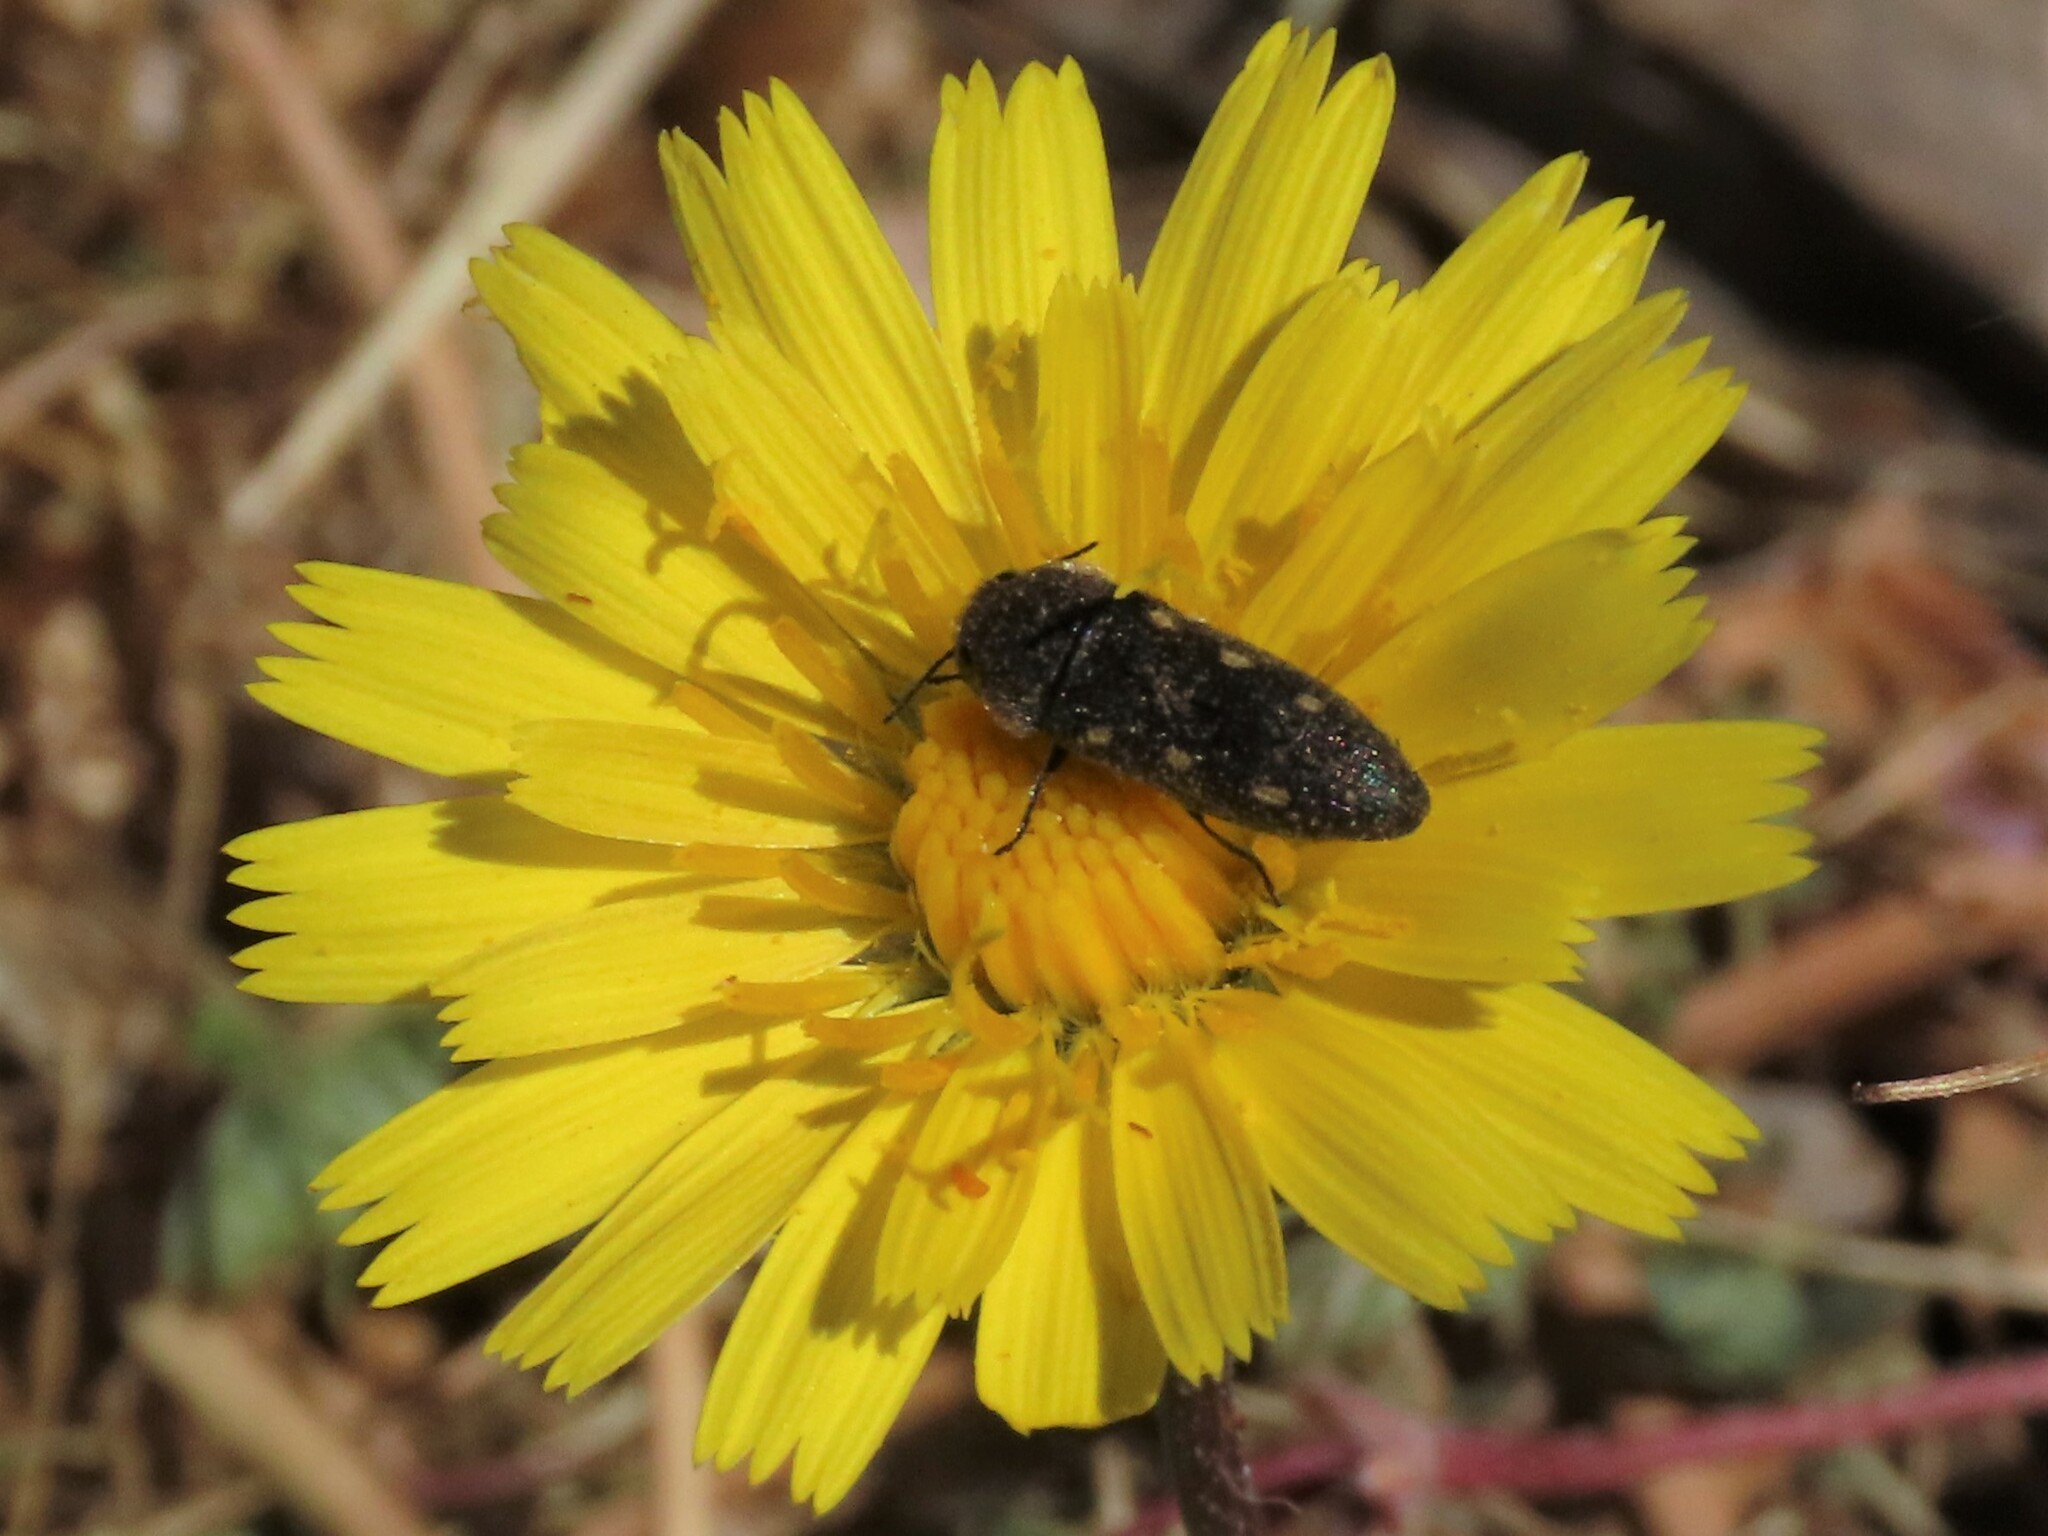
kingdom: Animalia
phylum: Arthropoda
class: Insecta
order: Coleoptera
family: Buprestidae
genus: Acmaeodera
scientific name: Acmaeodera bipunctata
